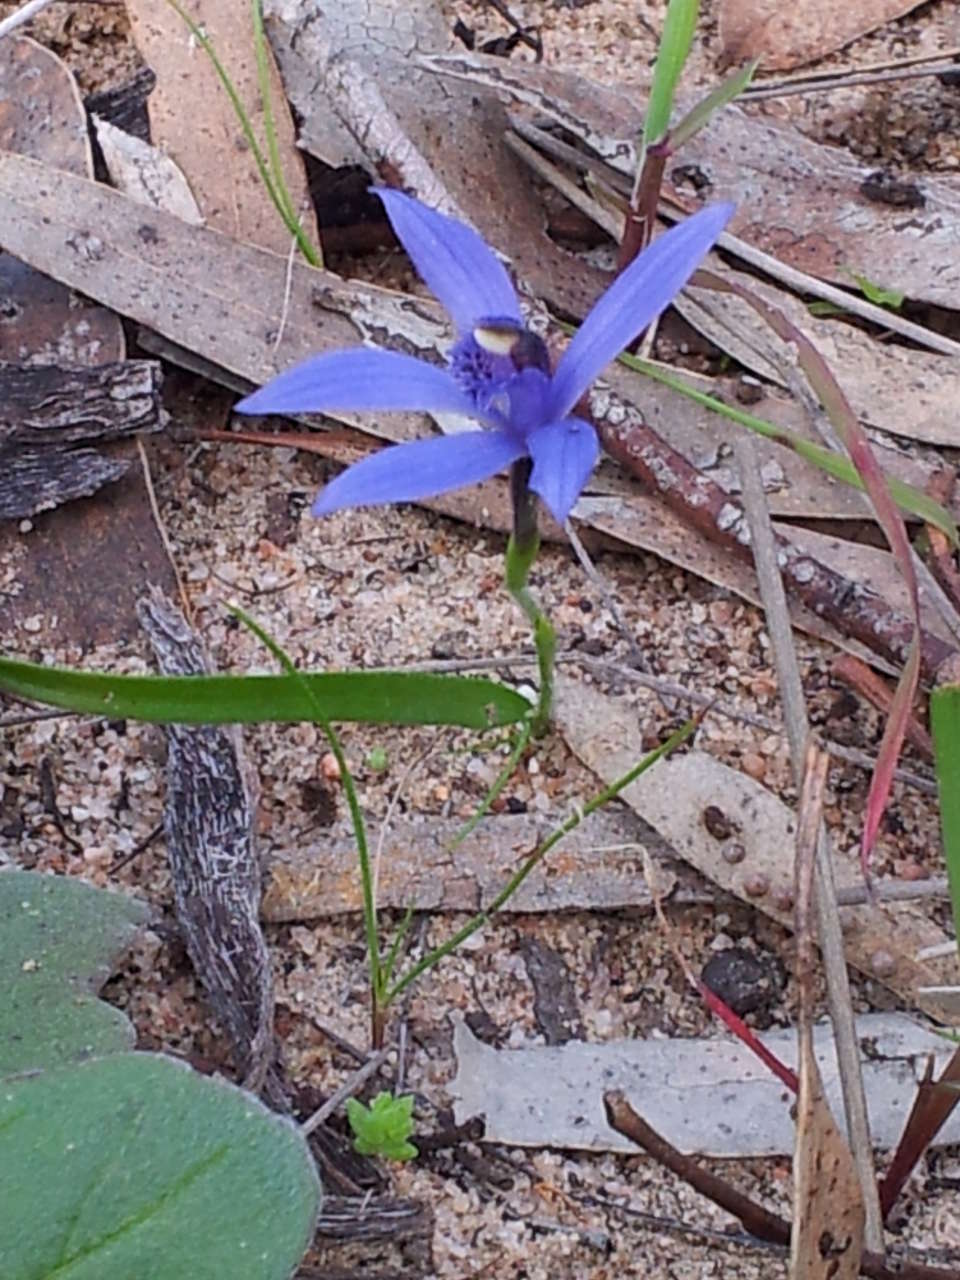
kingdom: Plantae
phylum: Tracheophyta
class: Liliopsida
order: Asparagales
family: Orchidaceae
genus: Pheladenia
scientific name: Pheladenia deformis
